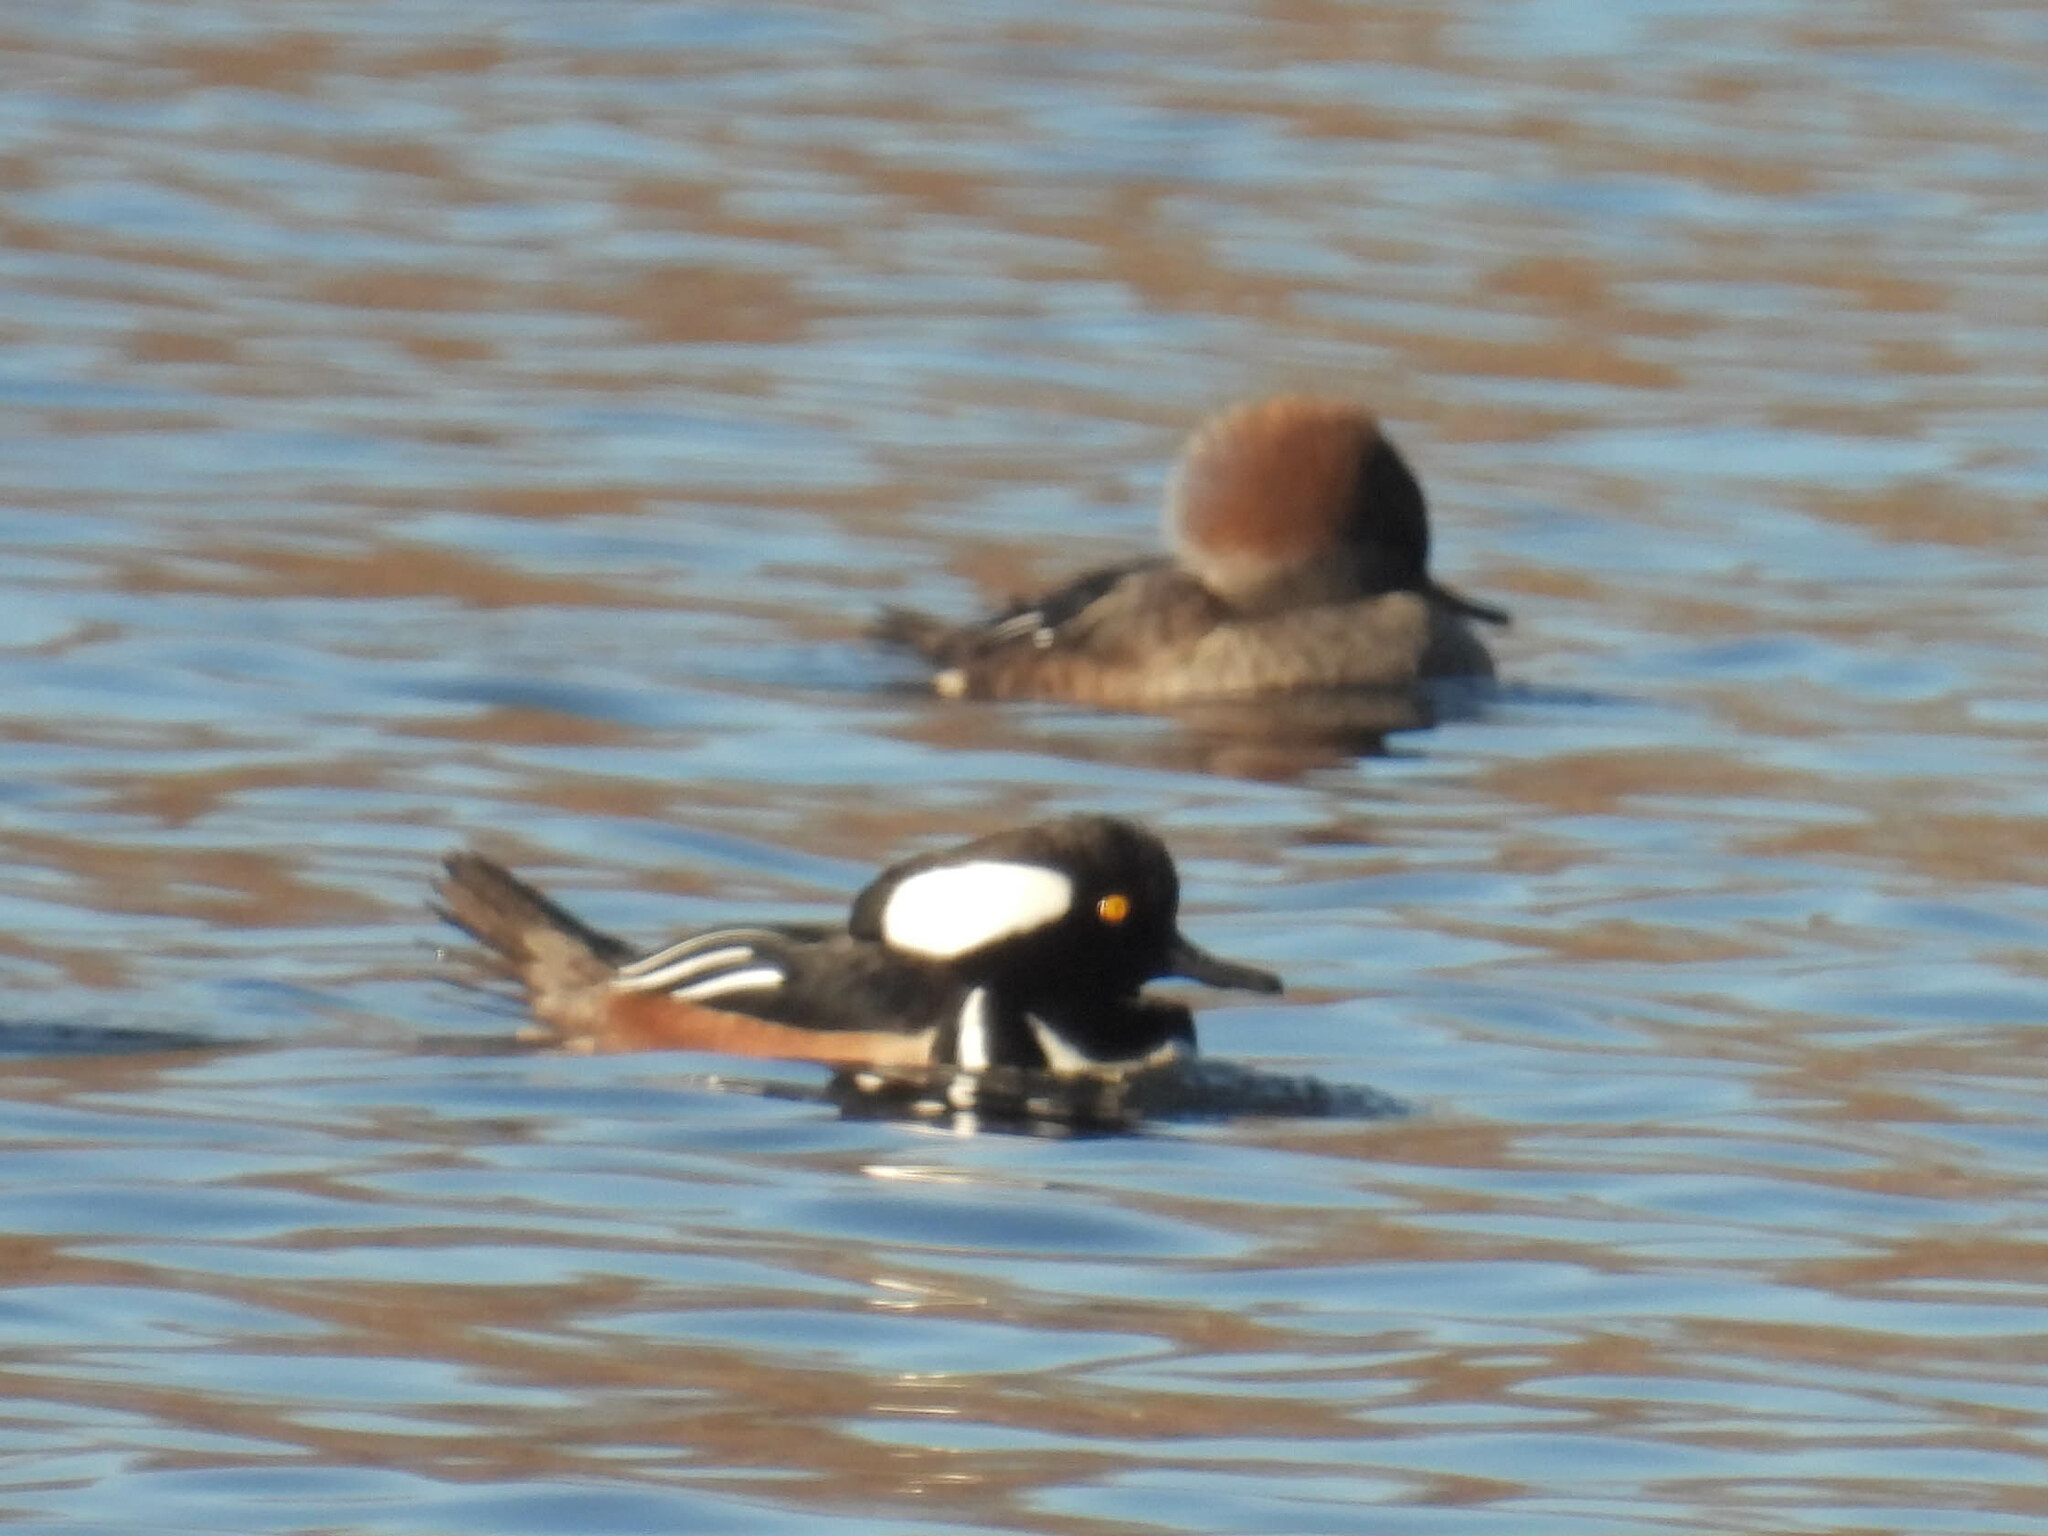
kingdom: Animalia
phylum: Chordata
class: Aves
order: Anseriformes
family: Anatidae
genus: Lophodytes
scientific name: Lophodytes cucullatus
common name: Hooded merganser
